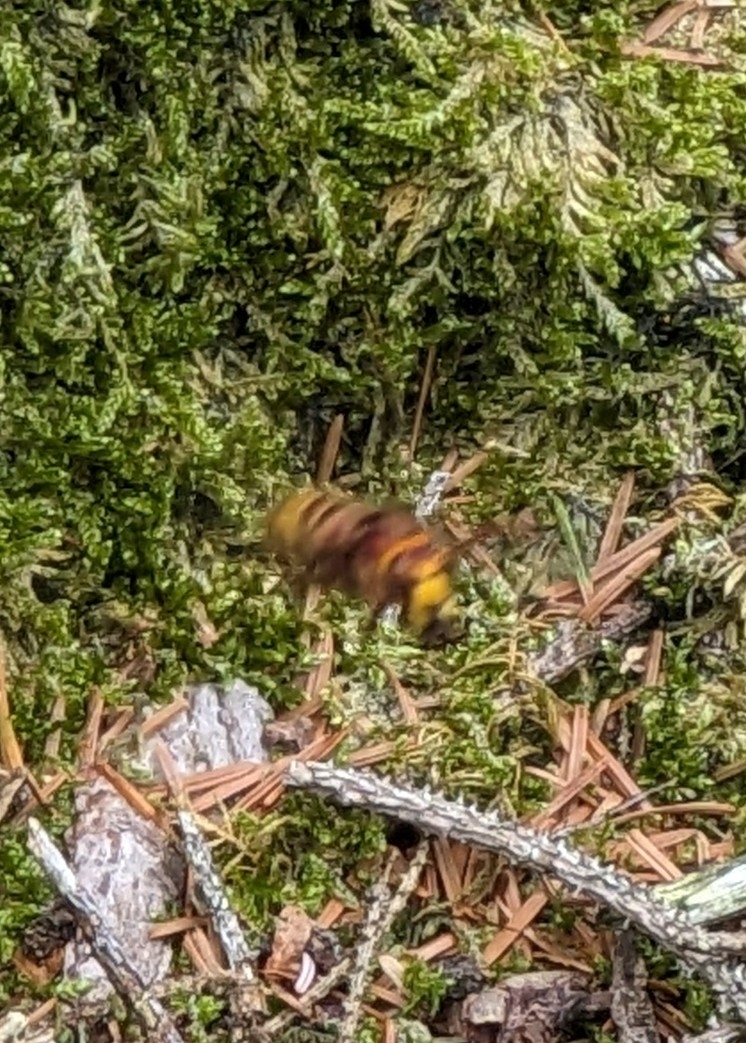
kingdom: Animalia
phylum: Arthropoda
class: Insecta
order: Hymenoptera
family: Vespidae
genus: Vespa
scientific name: Vespa crabro
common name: Hornet
